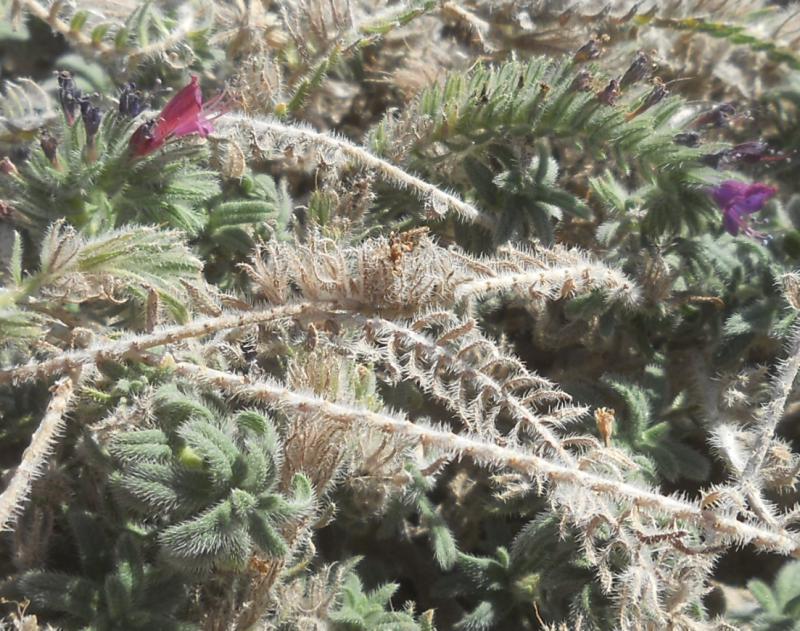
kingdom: Plantae
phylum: Tracheophyta
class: Magnoliopsida
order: Boraginales
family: Boraginaceae
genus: Echium
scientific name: Echium angustifolium
